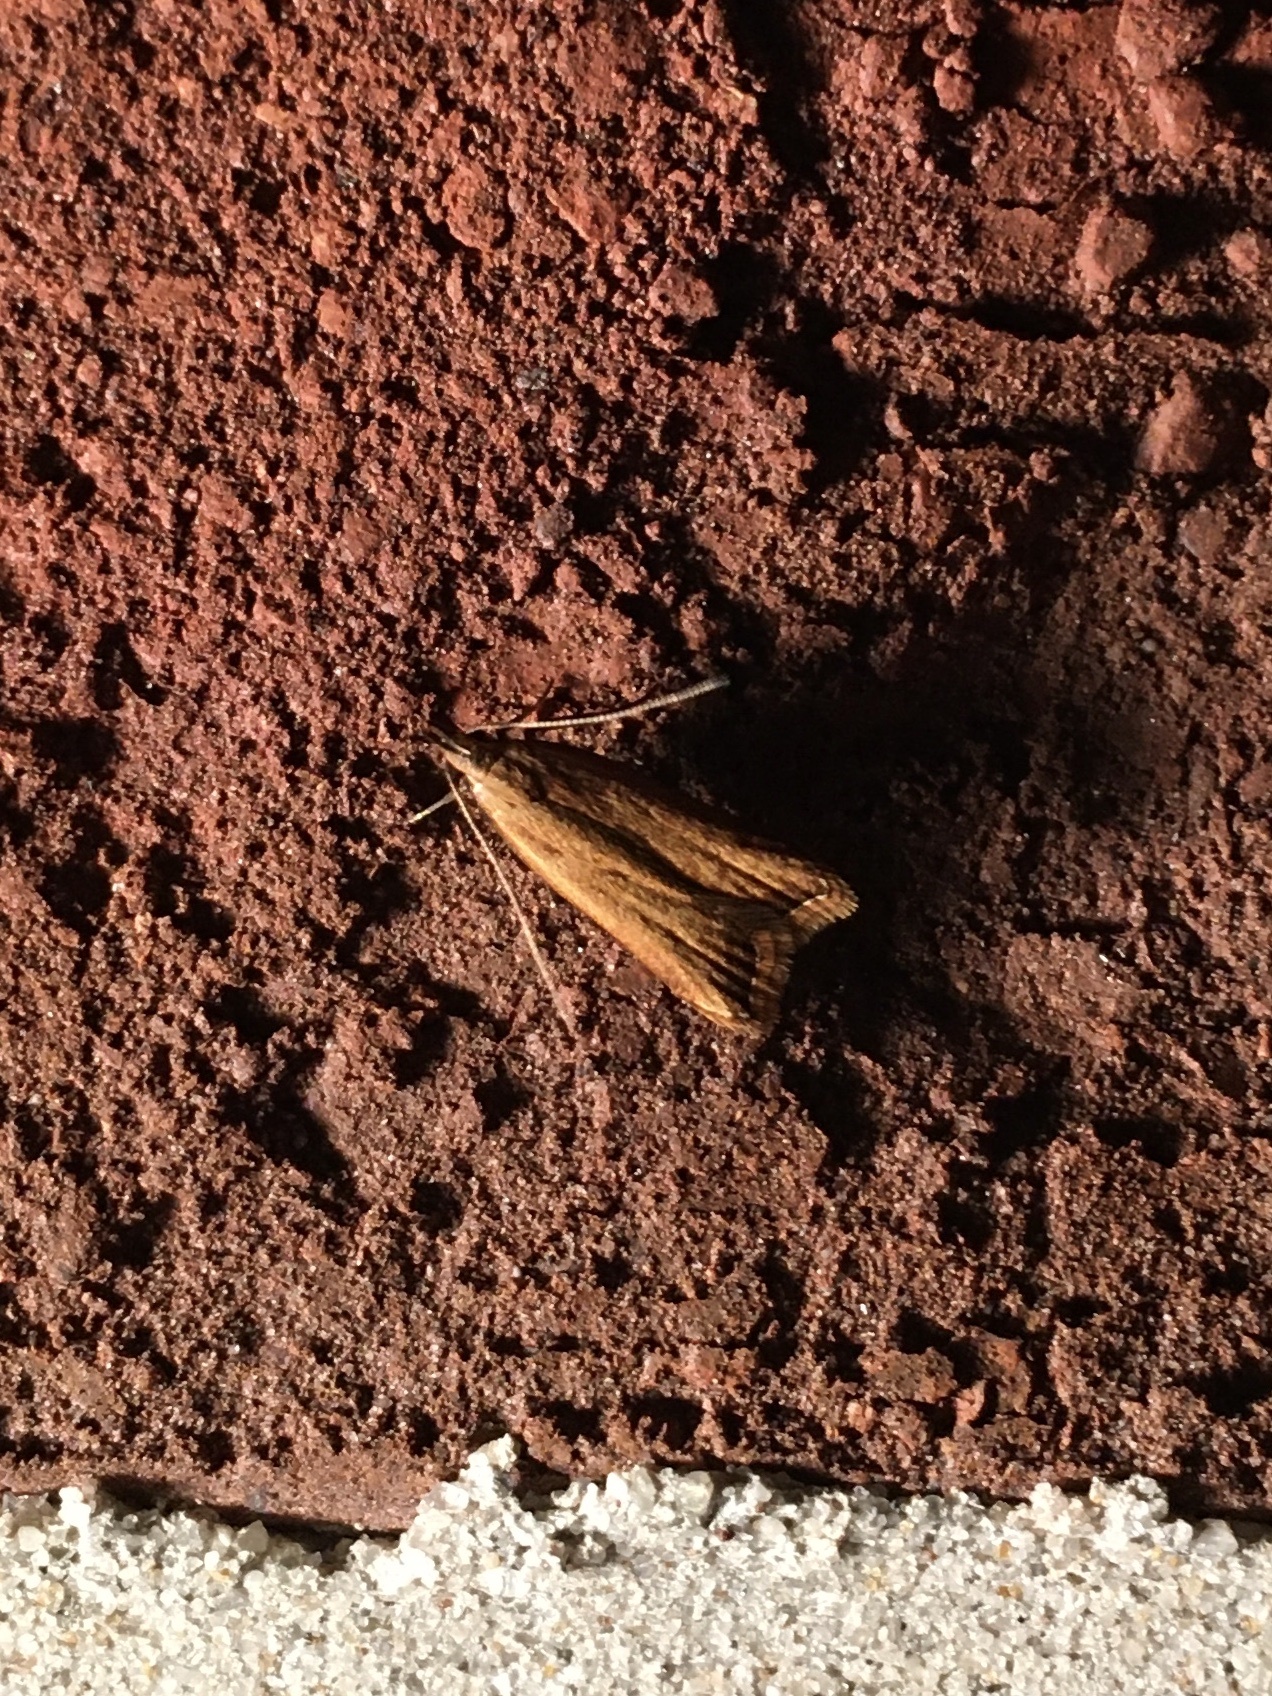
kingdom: Animalia
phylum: Arthropoda
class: Insecta
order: Lepidoptera
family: Gelechiidae
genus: Dichomeris
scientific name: Dichomeris heriguronis
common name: Black-edged dichomeris moth
